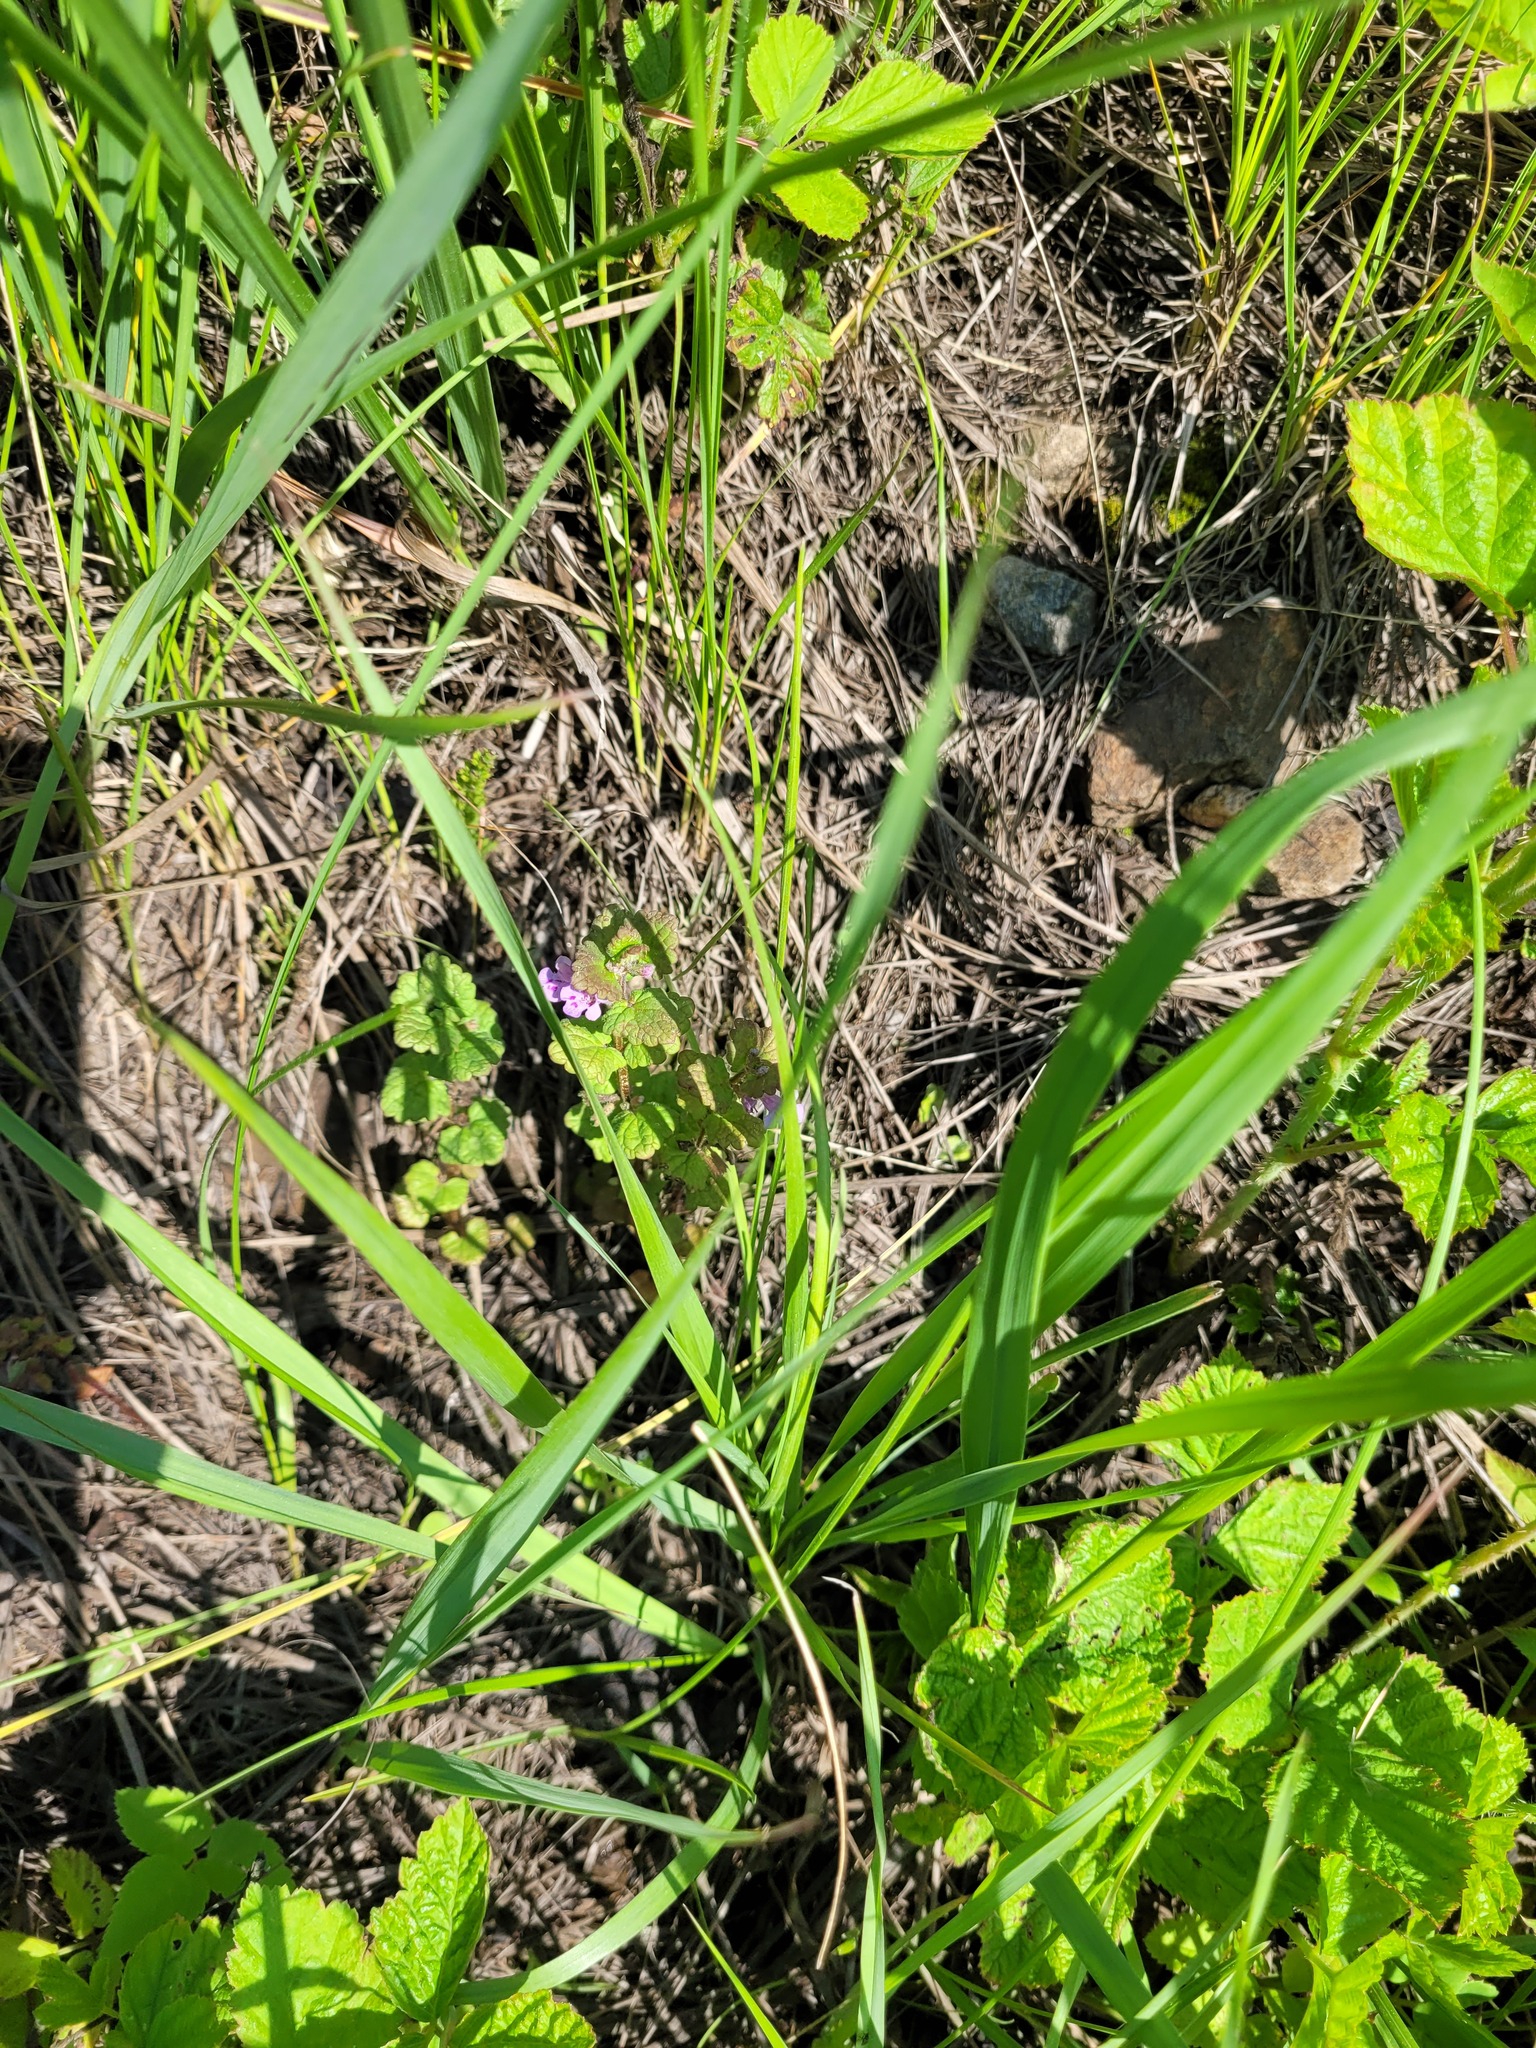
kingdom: Plantae
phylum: Tracheophyta
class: Magnoliopsida
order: Lamiales
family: Lamiaceae
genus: Glechoma
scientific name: Glechoma hederacea
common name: Ground ivy
